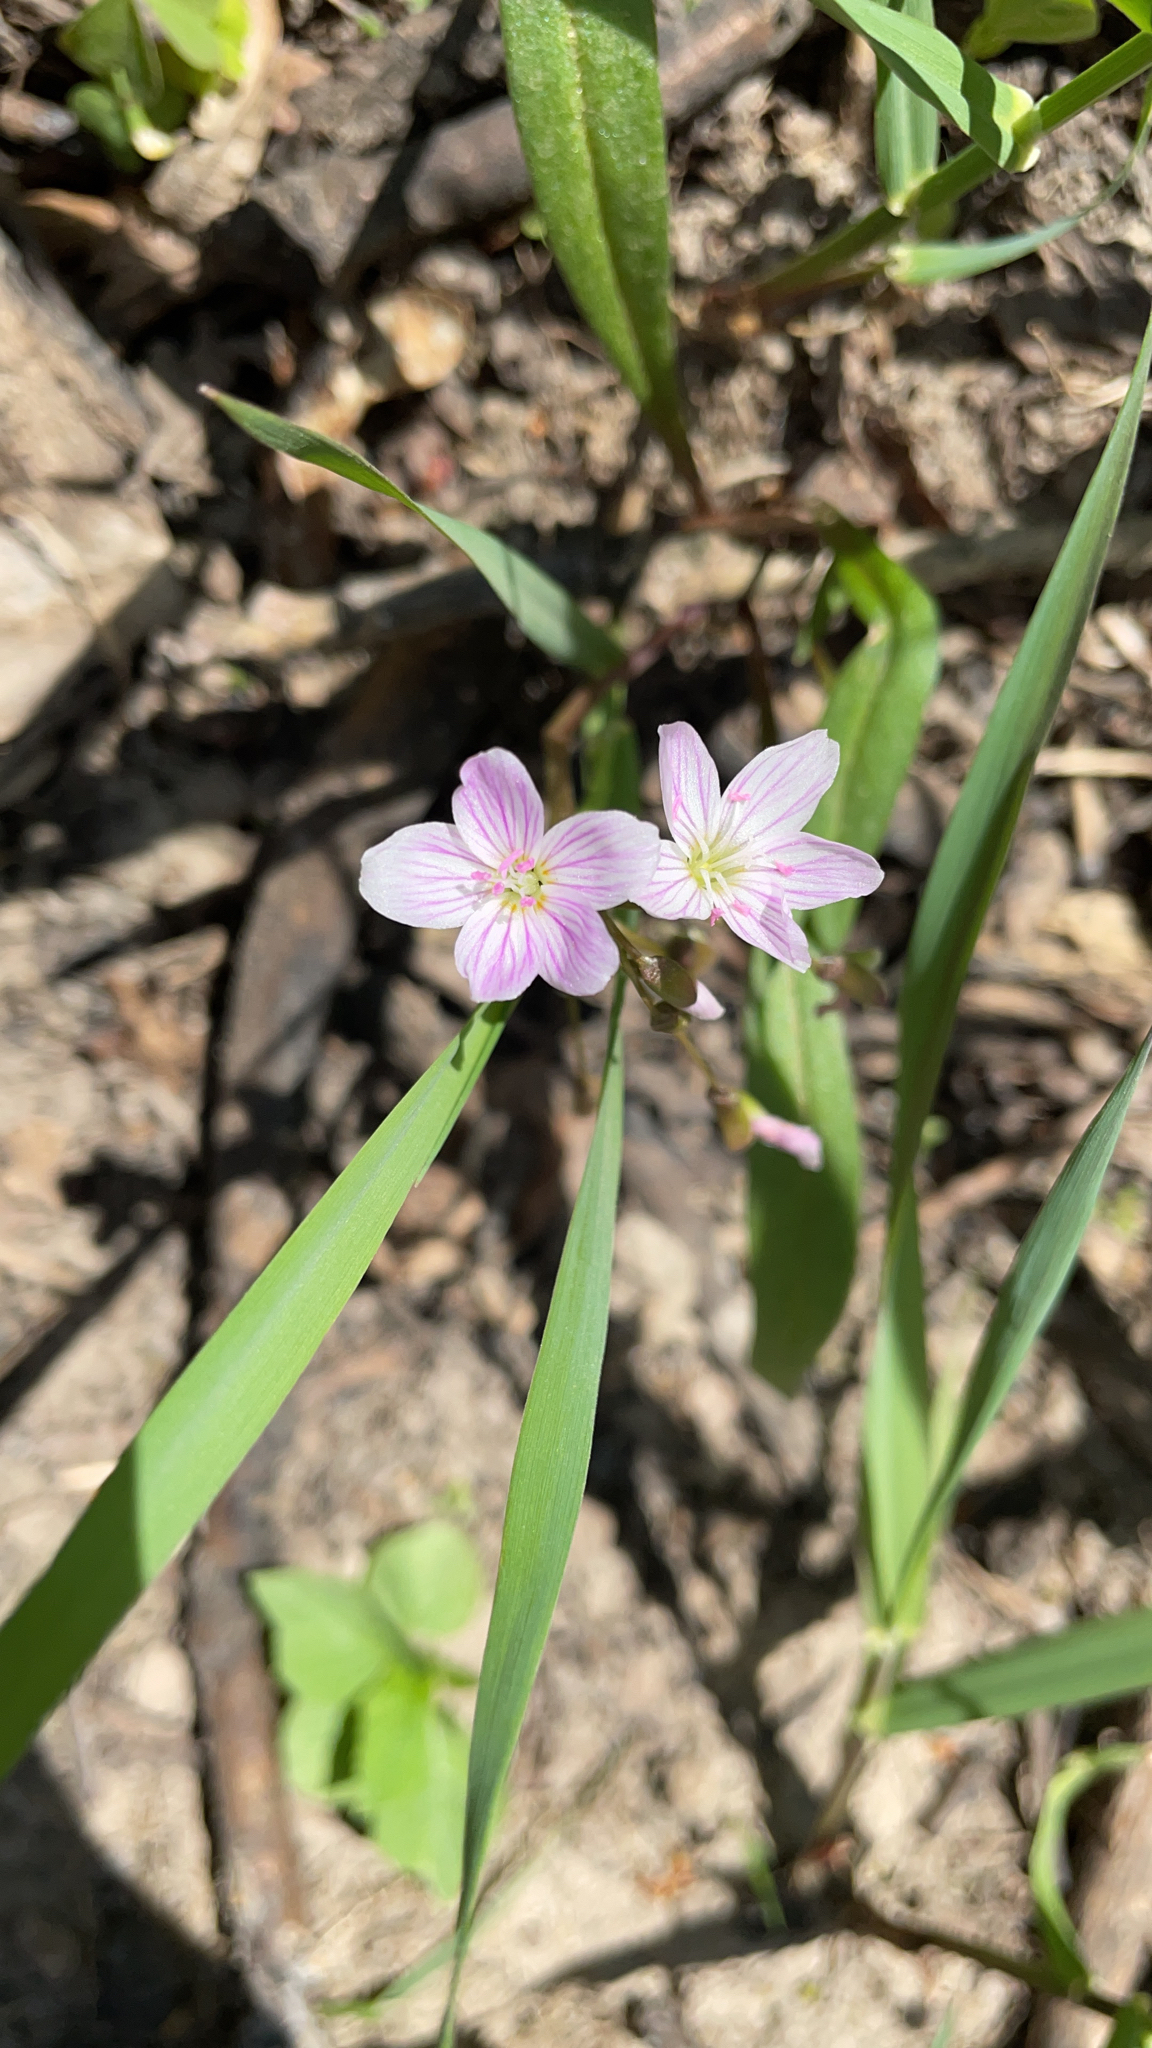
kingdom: Plantae
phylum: Tracheophyta
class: Magnoliopsida
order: Caryophyllales
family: Montiaceae
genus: Claytonia
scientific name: Claytonia virginica
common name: Virginia springbeauty
